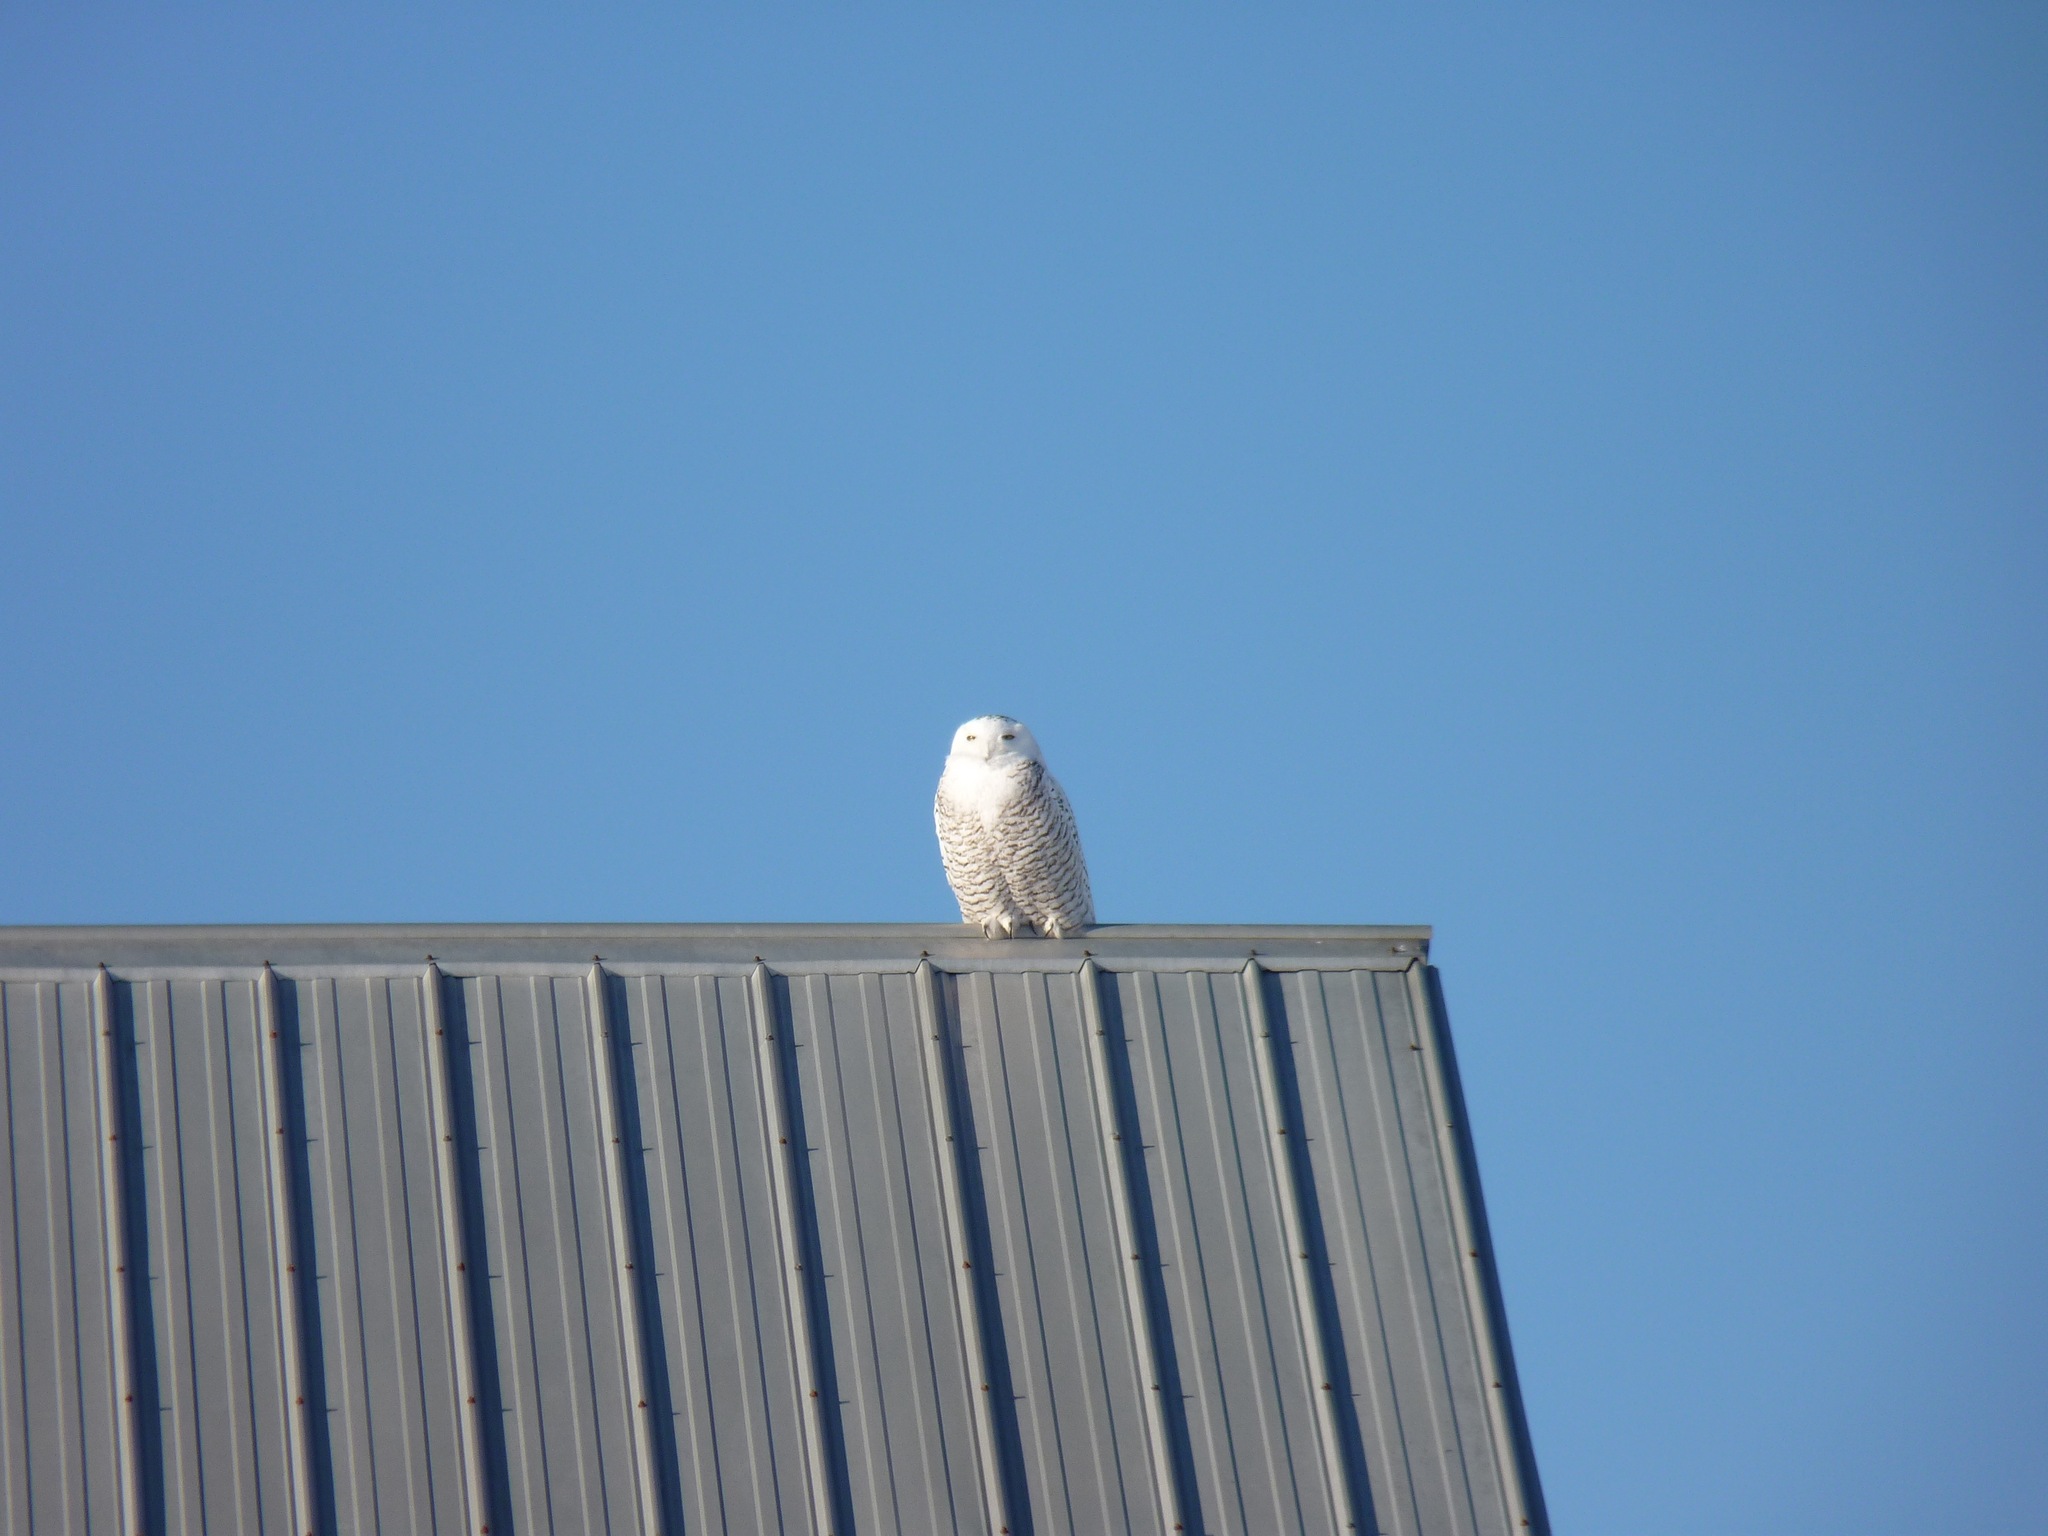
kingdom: Animalia
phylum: Chordata
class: Aves
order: Strigiformes
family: Strigidae
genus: Bubo
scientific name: Bubo scandiacus
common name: Snowy owl
